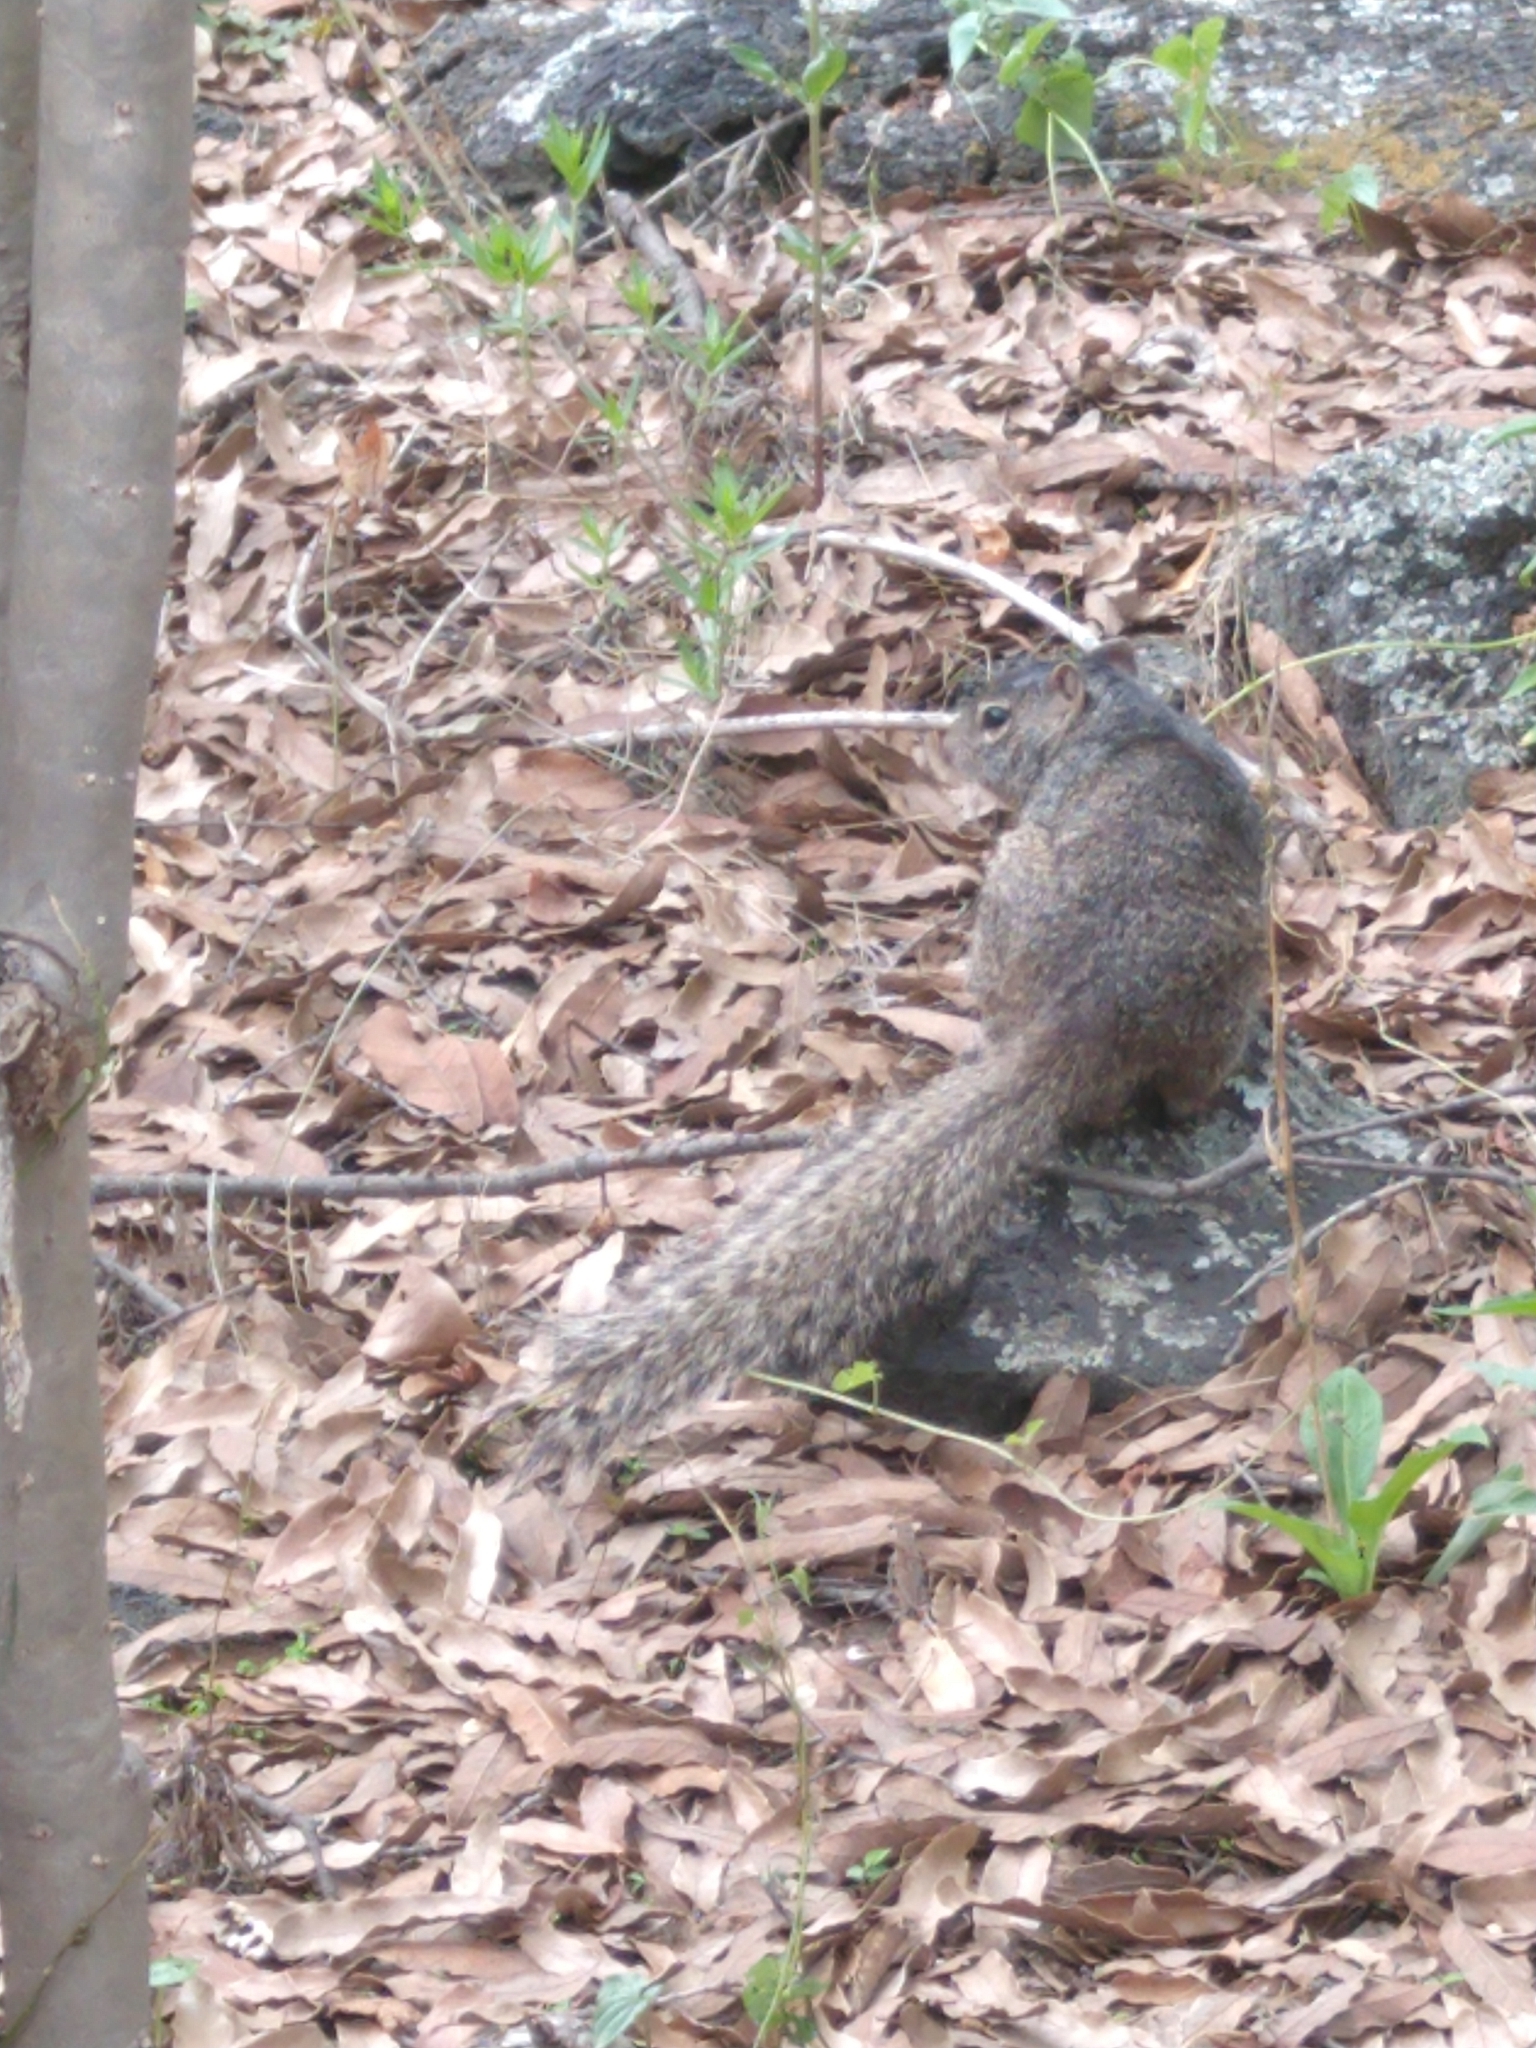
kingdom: Animalia
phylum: Chordata
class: Mammalia
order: Rodentia
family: Sciuridae
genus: Otospermophilus
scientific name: Otospermophilus variegatus
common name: Rock squirrel
